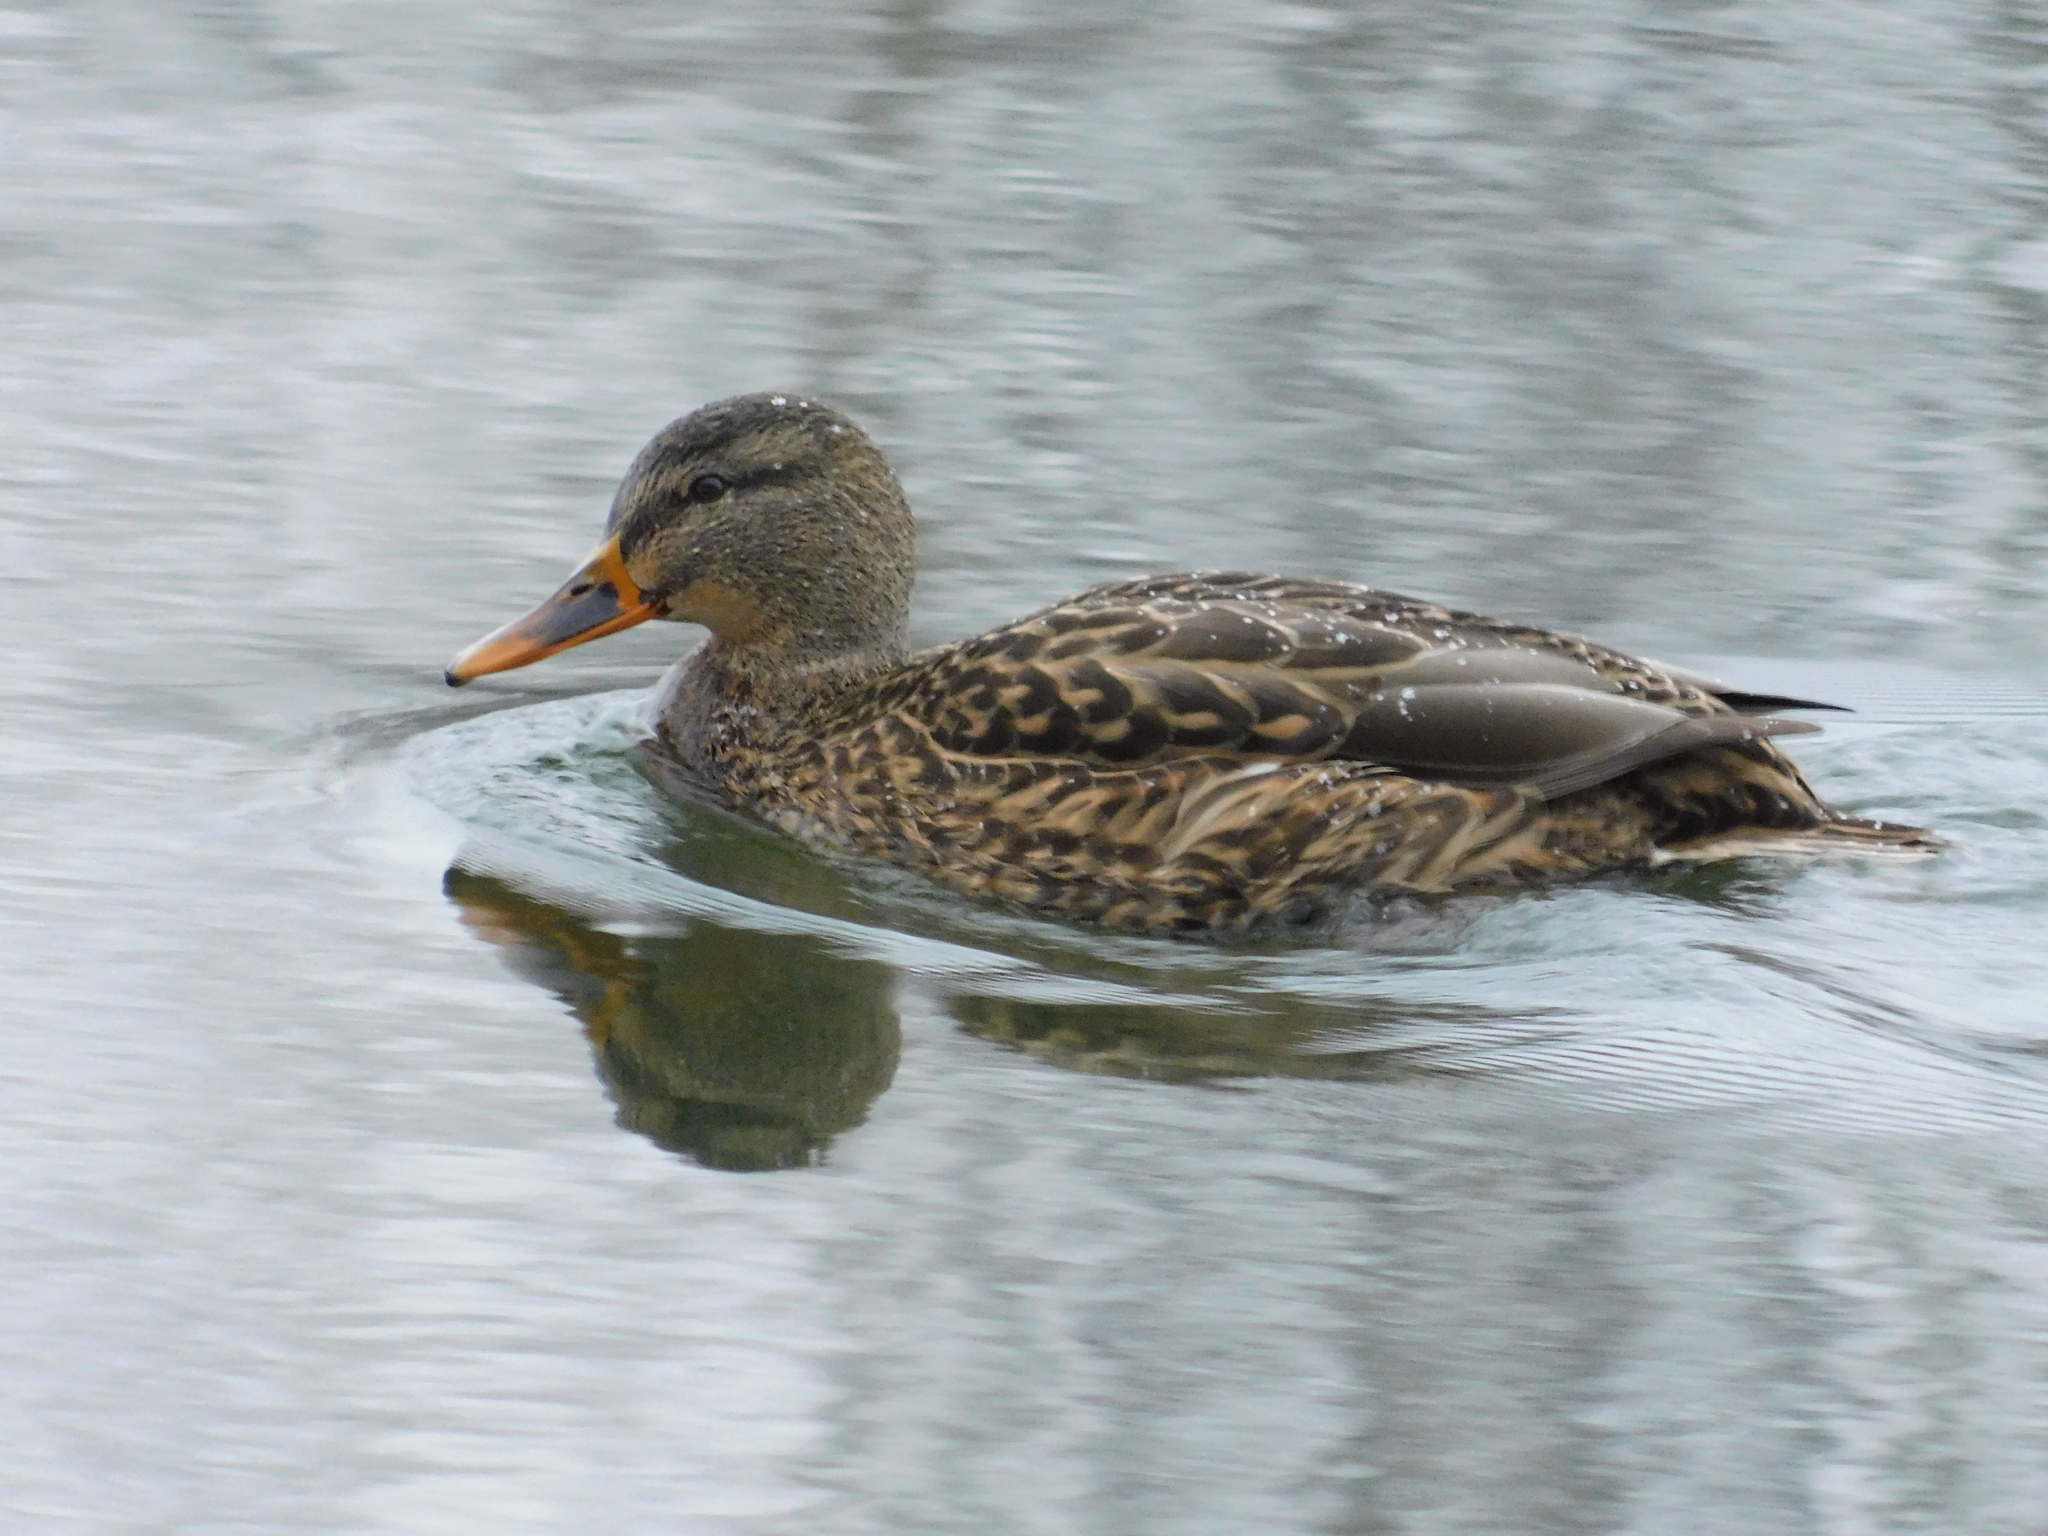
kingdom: Animalia
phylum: Chordata
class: Aves
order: Anseriformes
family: Anatidae
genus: Anas
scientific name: Anas platyrhynchos
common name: Mallard
